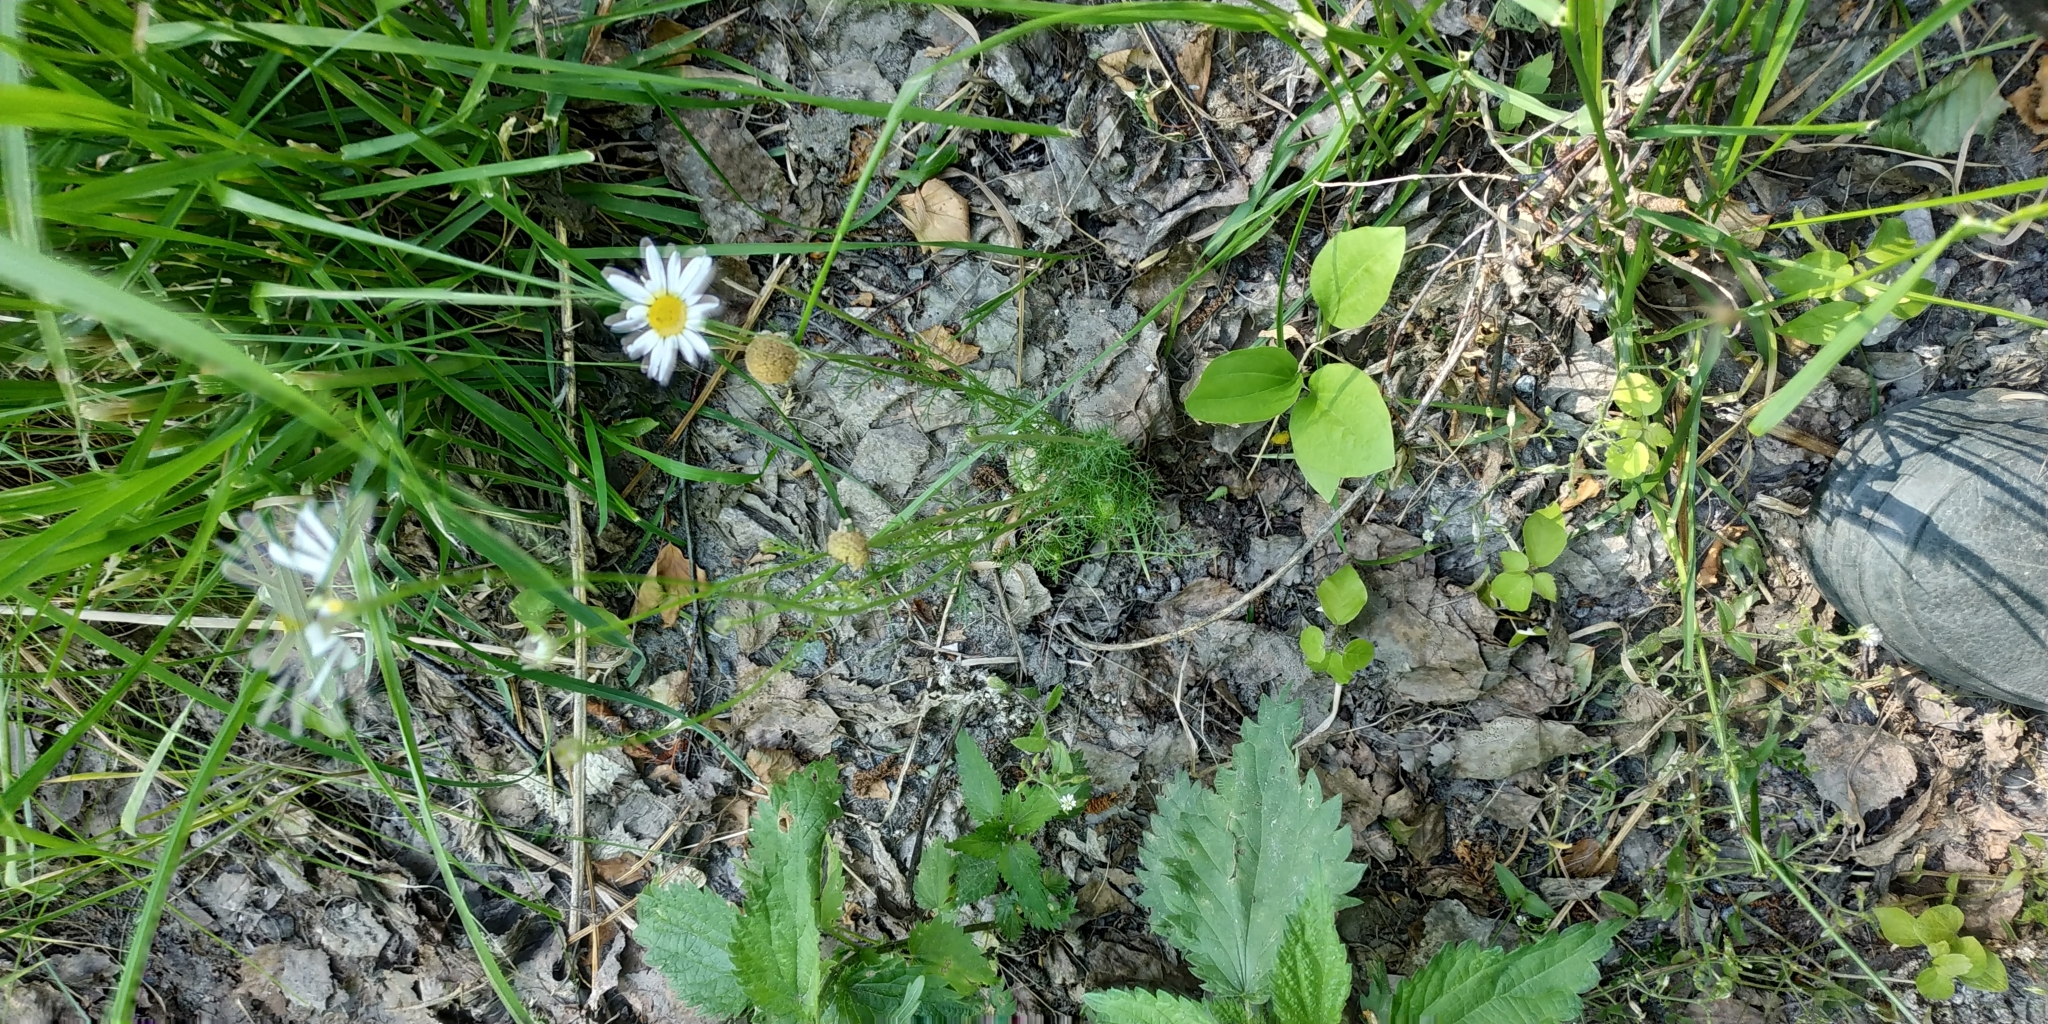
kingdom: Plantae
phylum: Tracheophyta
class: Magnoliopsida
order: Asterales
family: Asteraceae
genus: Tripleurospermum
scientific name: Tripleurospermum inodorum
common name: Scentless mayweed
